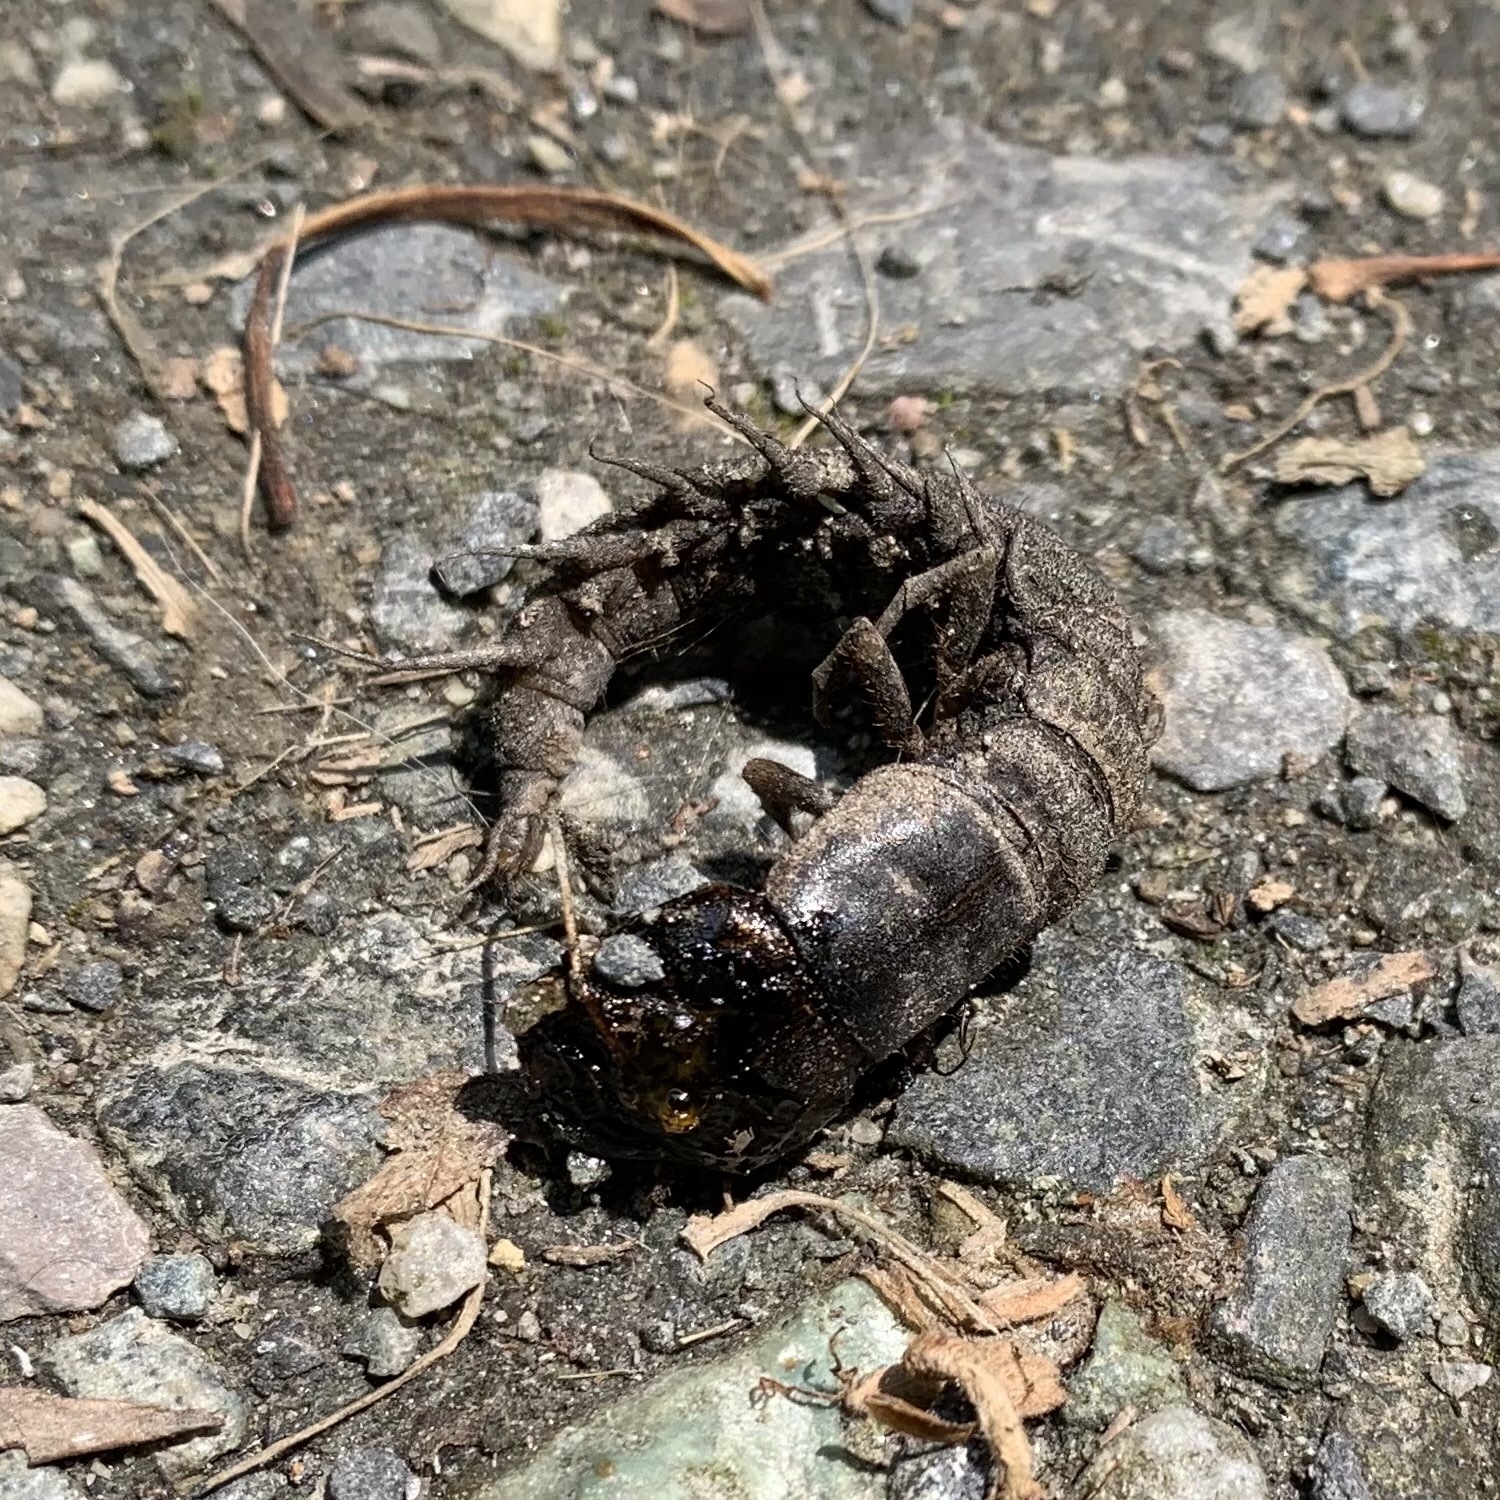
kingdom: Animalia
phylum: Arthropoda
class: Insecta
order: Megaloptera
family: Corydalidae
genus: Corydalus
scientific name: Corydalus cornutus
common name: Dobsonfly
